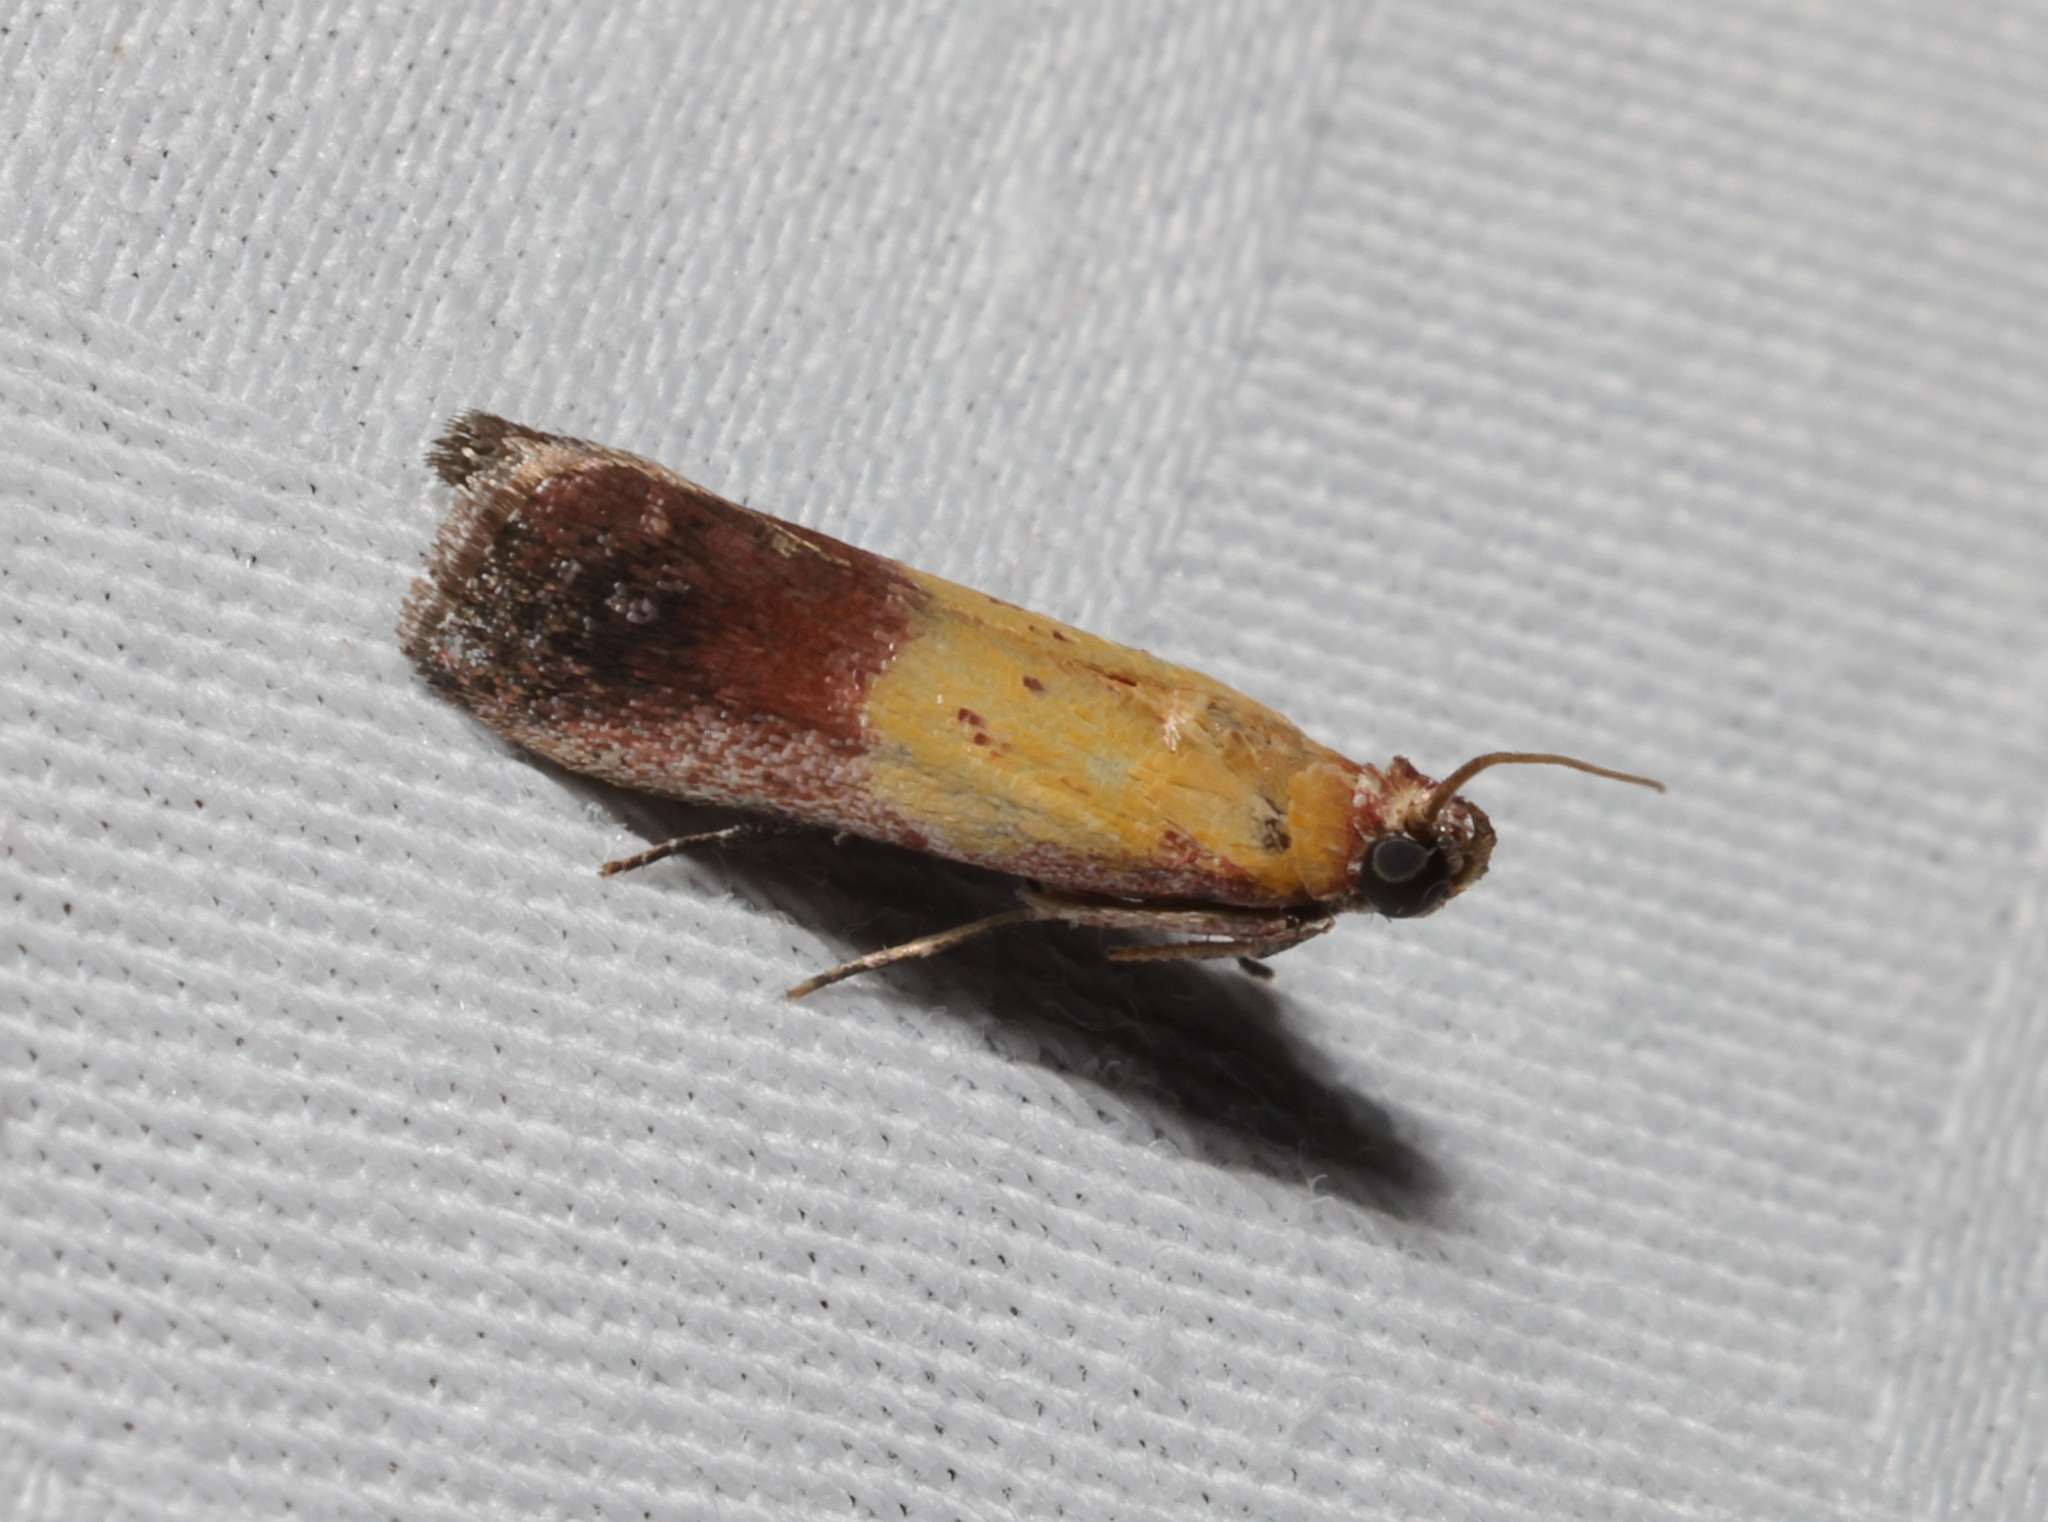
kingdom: Animalia
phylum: Arthropoda
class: Insecta
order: Lepidoptera
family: Pyralidae
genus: Piesmopoda
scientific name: Piesmopoda
